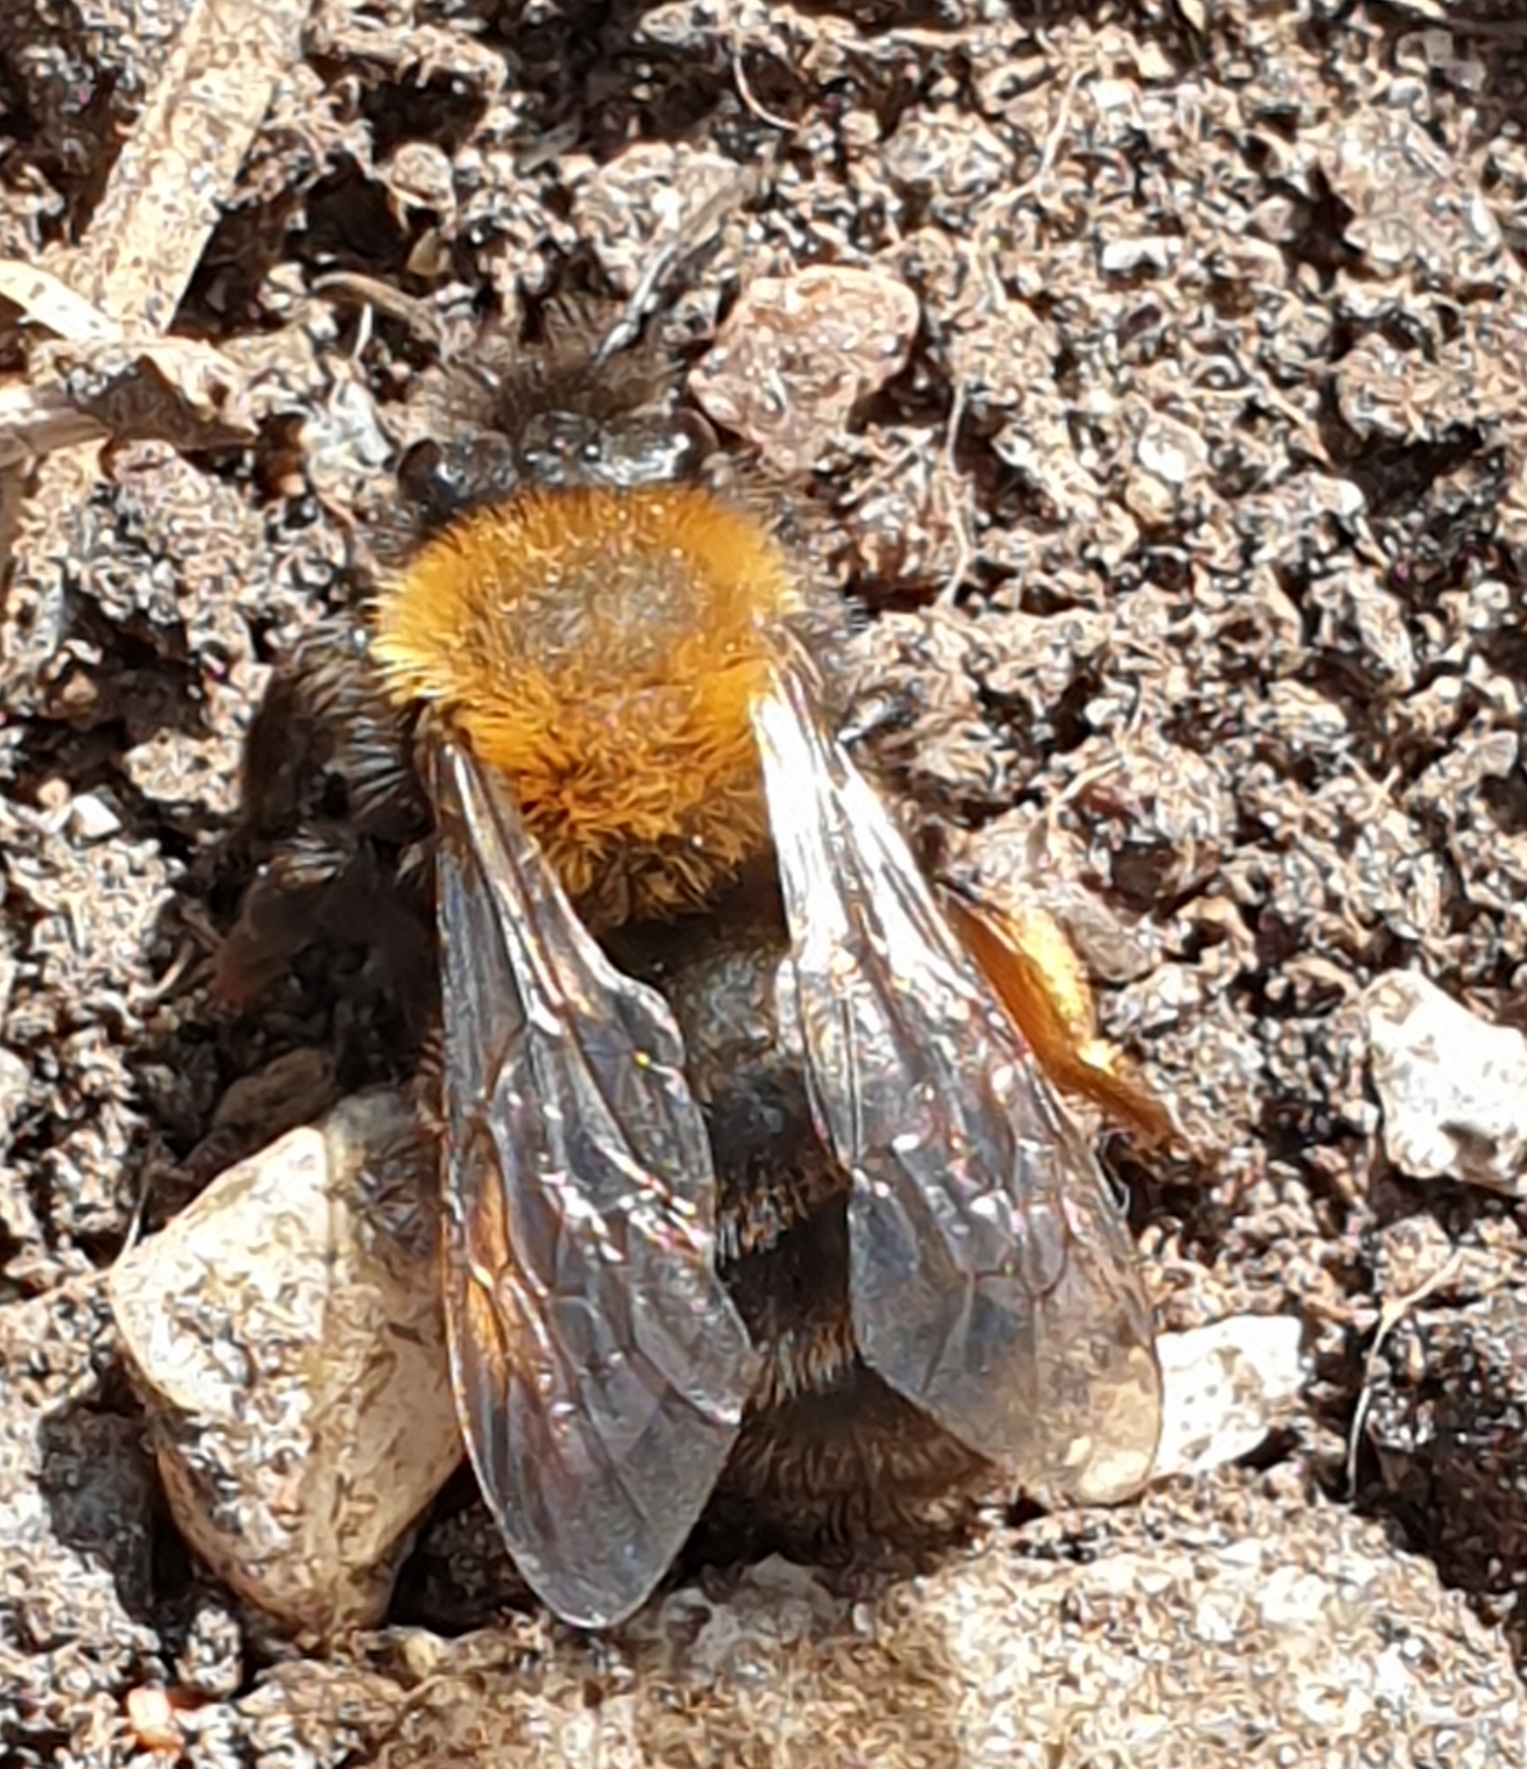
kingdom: Animalia
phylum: Arthropoda
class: Insecta
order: Hymenoptera
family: Andrenidae
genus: Andrena
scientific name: Andrena clarkella
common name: Clarke's mining bee
